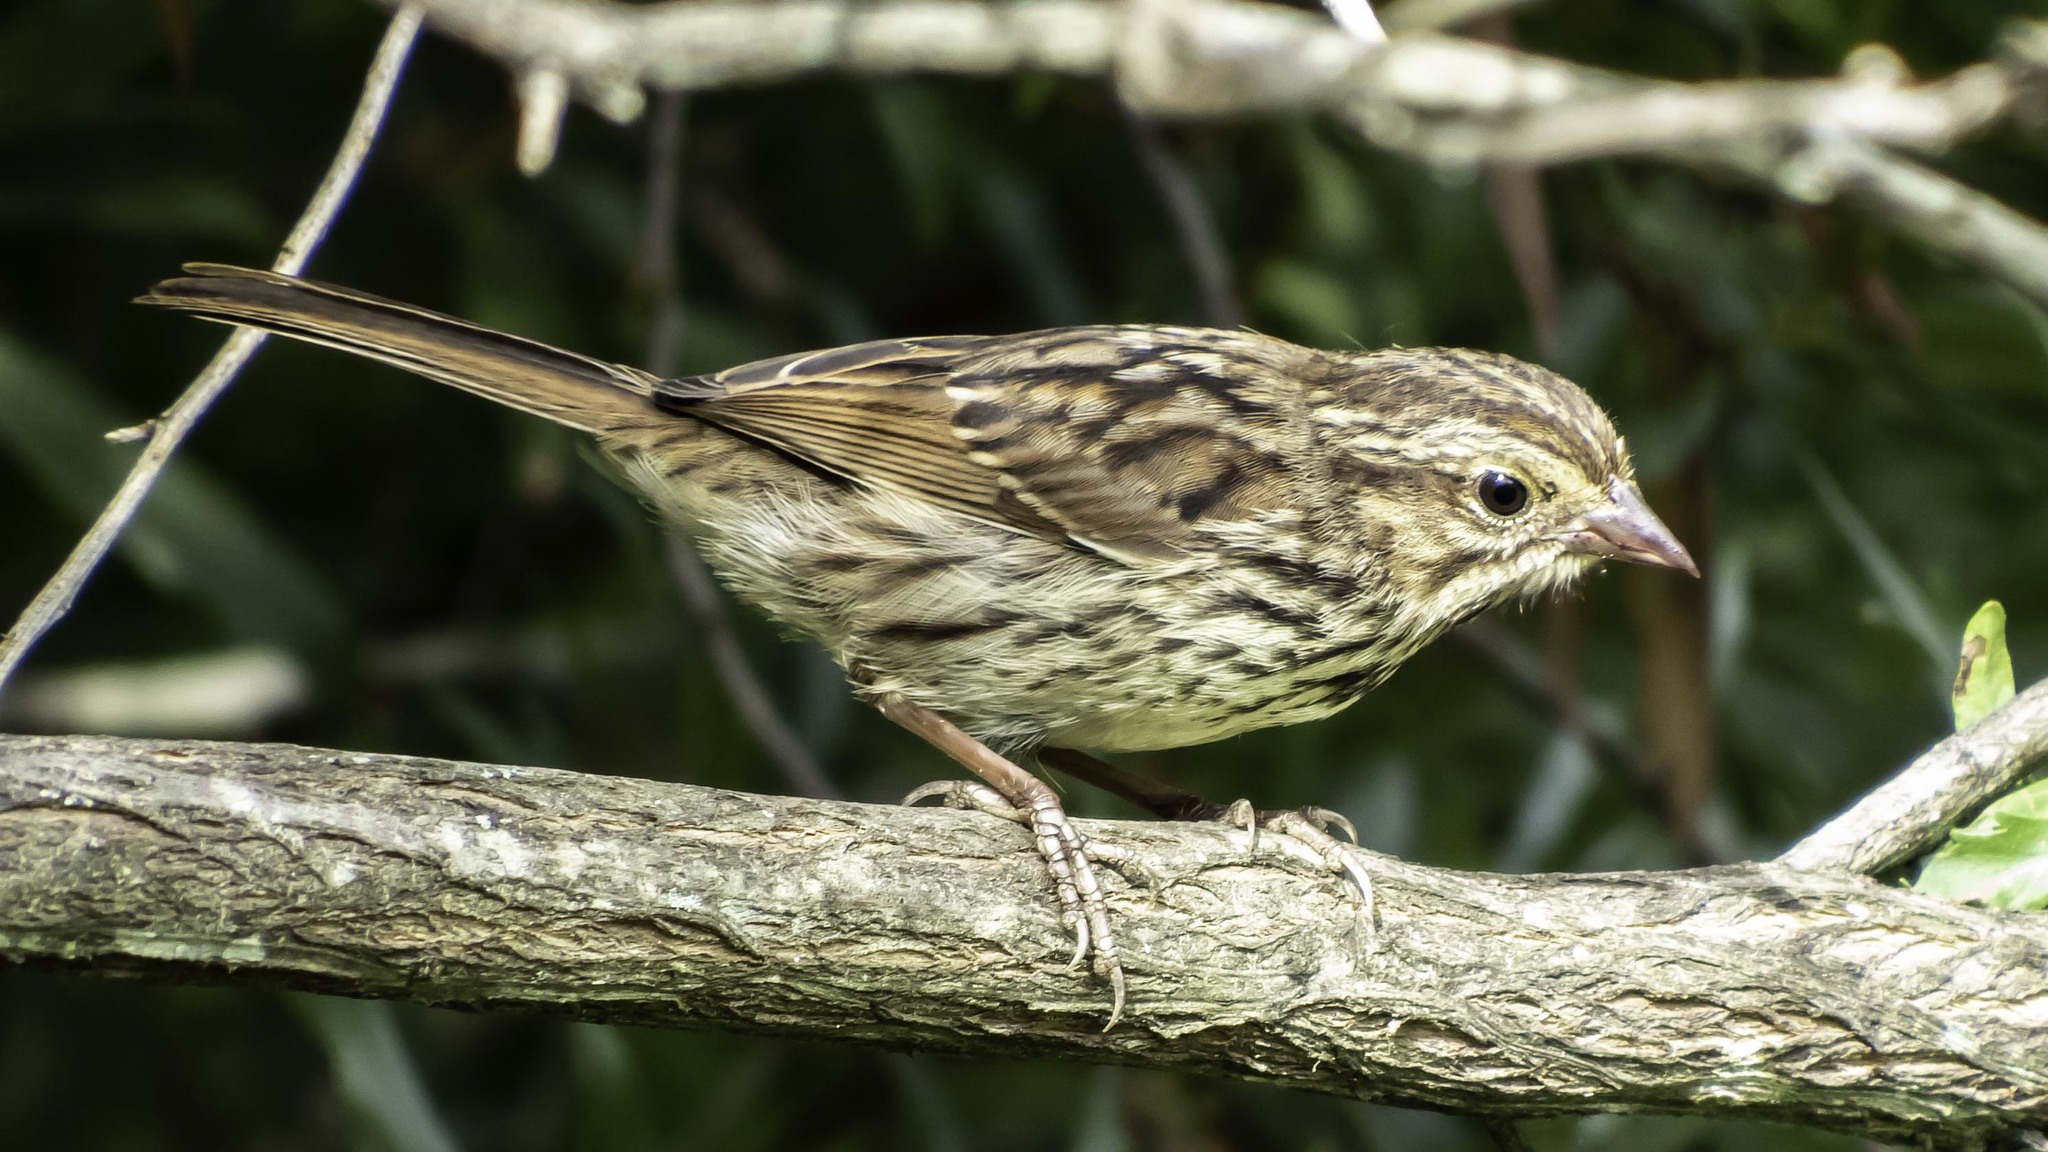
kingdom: Animalia
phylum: Chordata
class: Aves
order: Passeriformes
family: Passerellidae
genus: Melospiza
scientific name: Melospiza melodia
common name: Song sparrow
